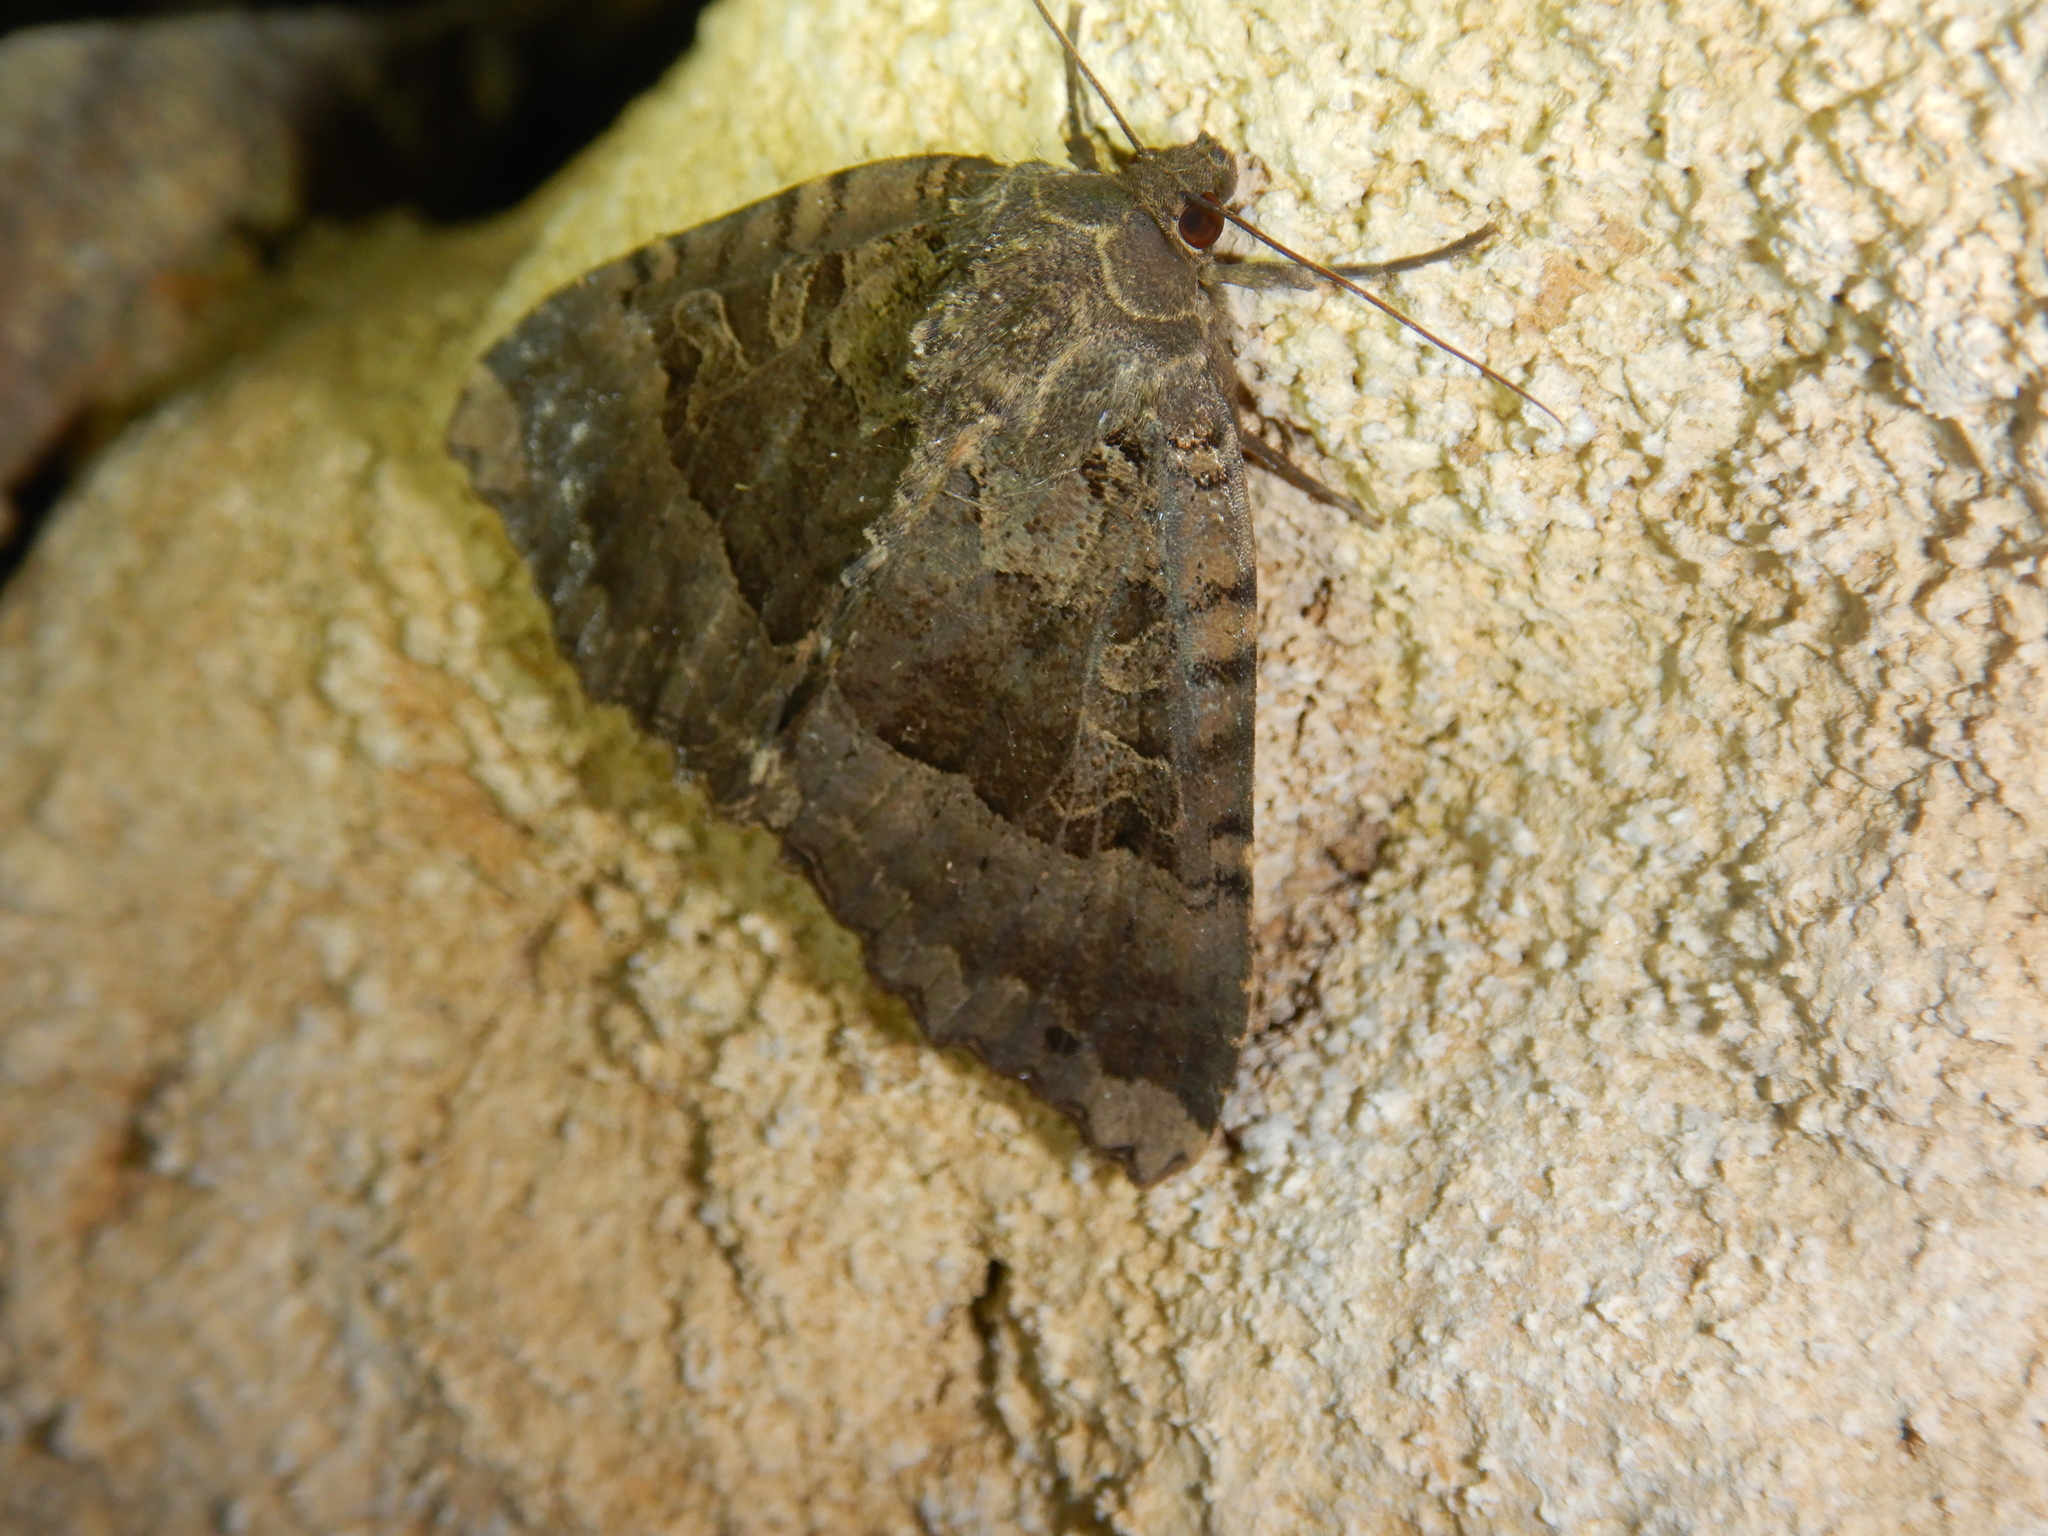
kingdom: Animalia
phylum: Arthropoda
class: Insecta
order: Lepidoptera
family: Noctuidae
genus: Mormo
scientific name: Mormo maura
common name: Old lady
